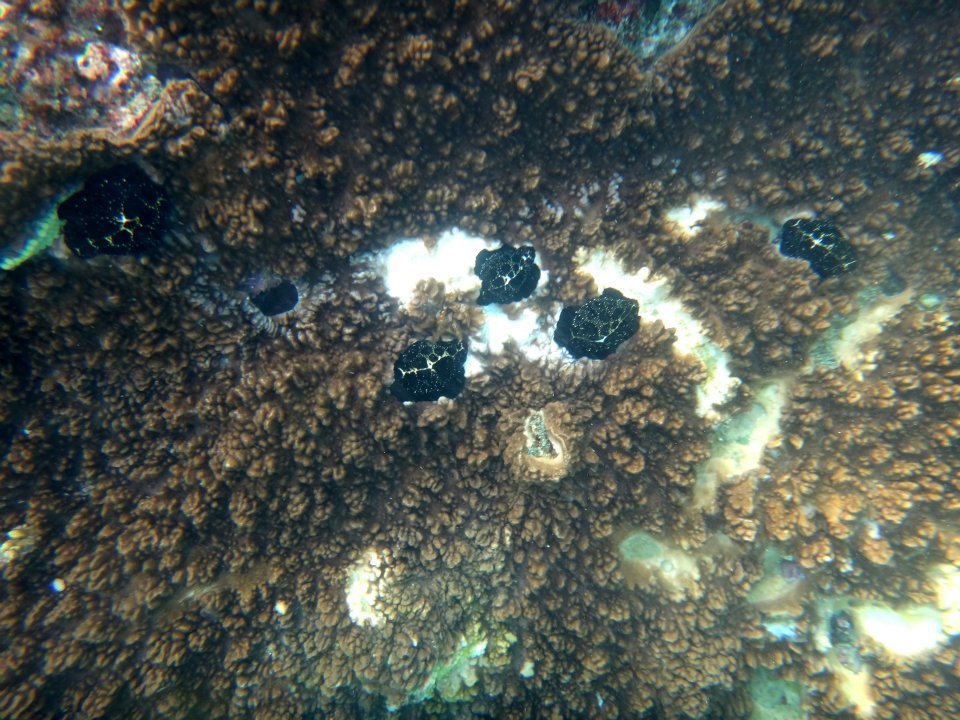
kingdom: Animalia
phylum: Mollusca
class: Gastropoda
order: Littorinimorpha
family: Ovulidae
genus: Ovula
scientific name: Ovula ovum
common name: Common egg cowrie
